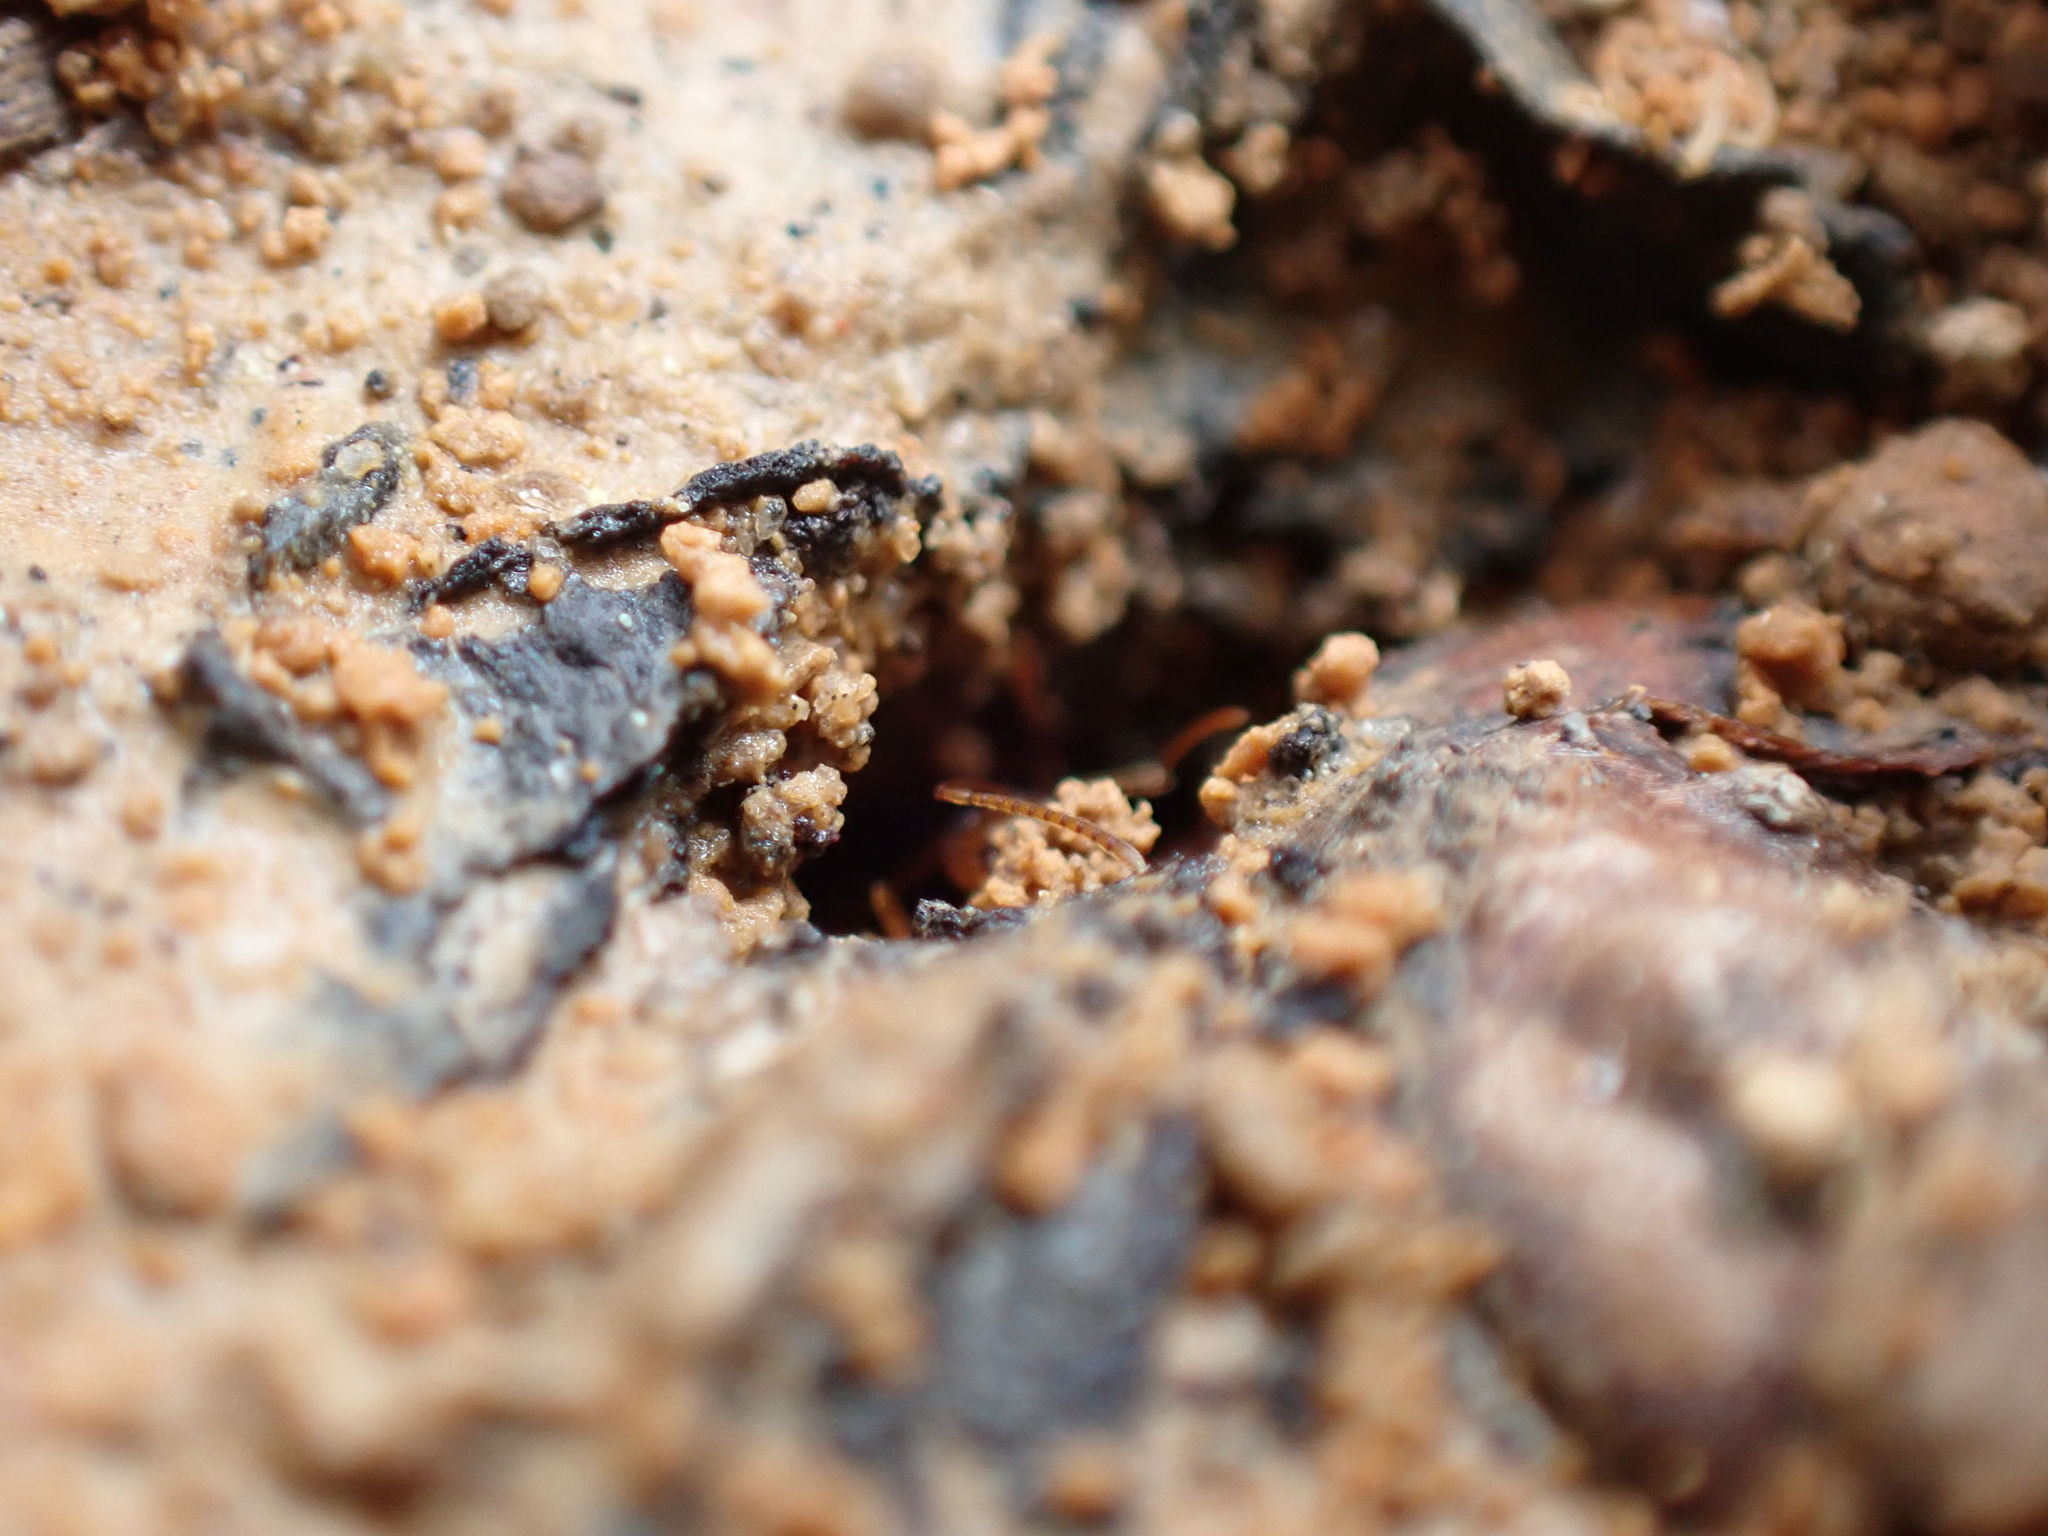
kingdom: Animalia
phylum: Arthropoda
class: Insecta
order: Hymenoptera
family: Formicidae
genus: Prenolepis
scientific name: Prenolepis imparis
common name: Small honey ant
